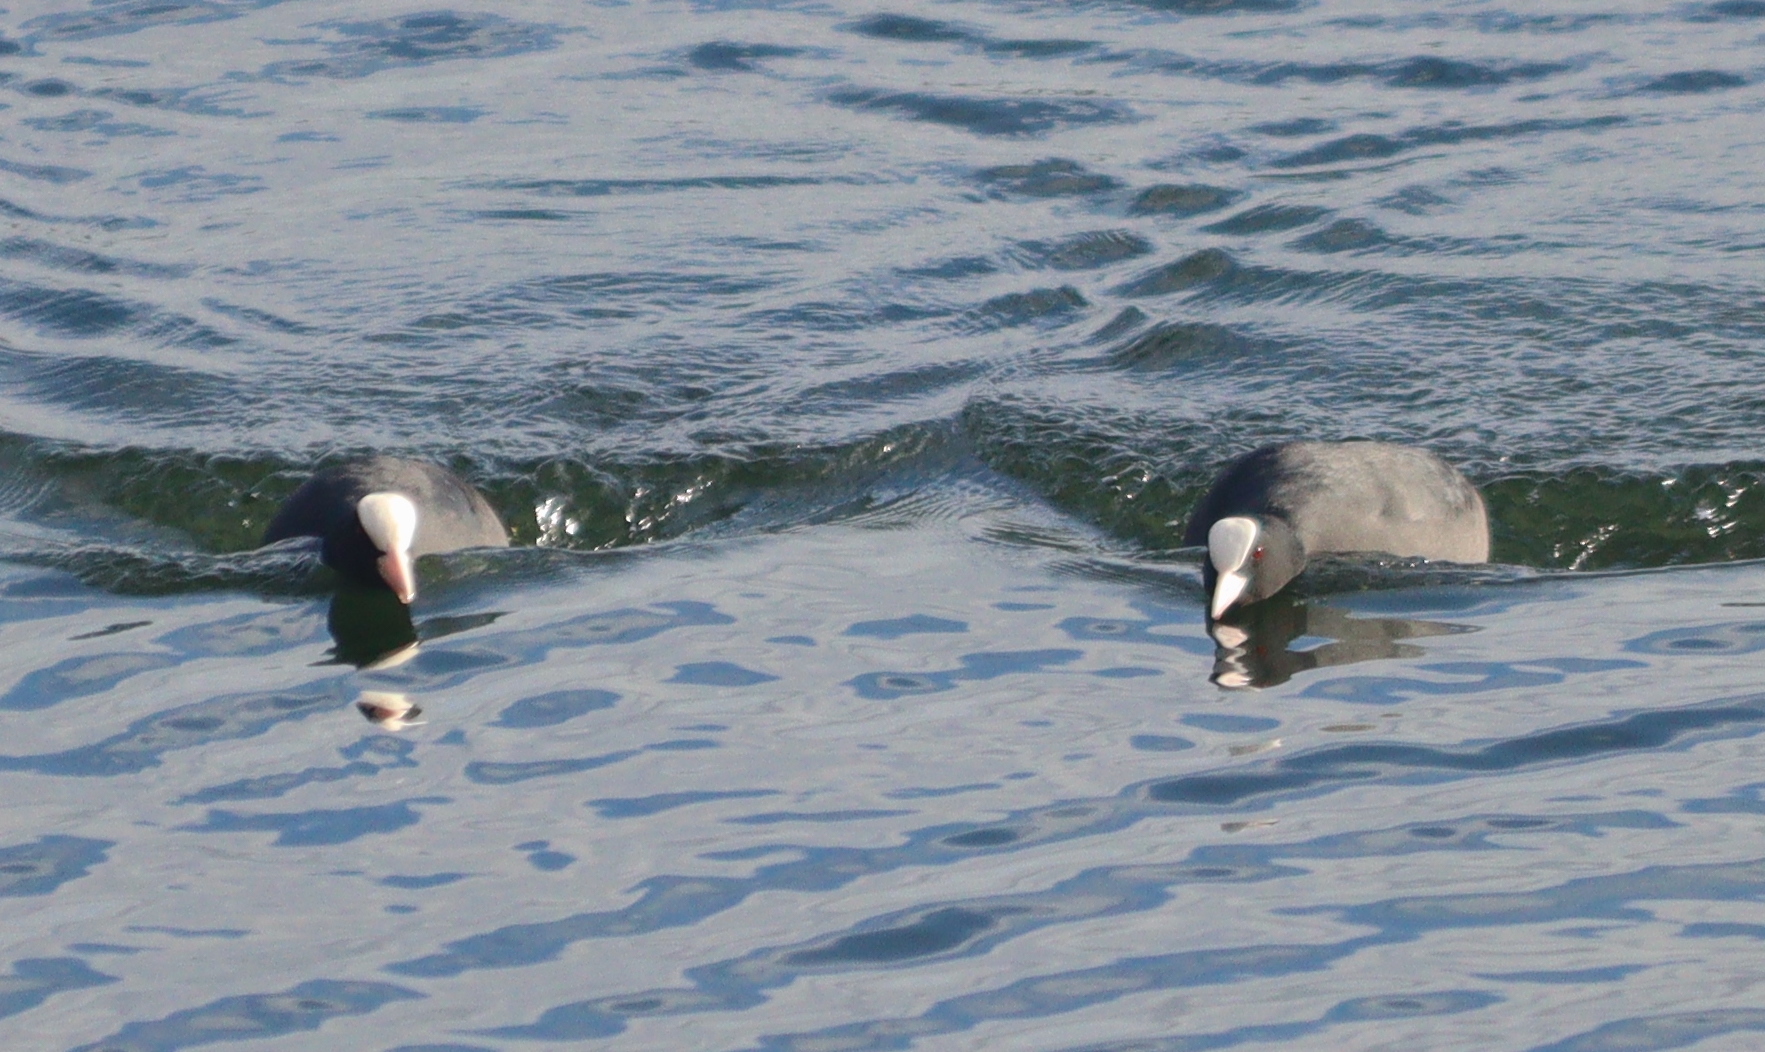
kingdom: Animalia
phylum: Chordata
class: Aves
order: Gruiformes
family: Rallidae
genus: Fulica
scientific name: Fulica atra
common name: Eurasian coot
